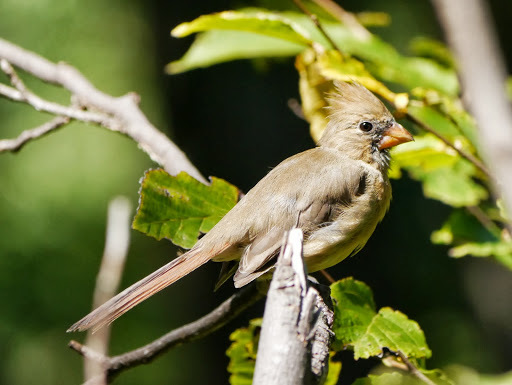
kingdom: Animalia
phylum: Chordata
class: Aves
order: Passeriformes
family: Cardinalidae
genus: Cardinalis
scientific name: Cardinalis cardinalis
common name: Northern cardinal
